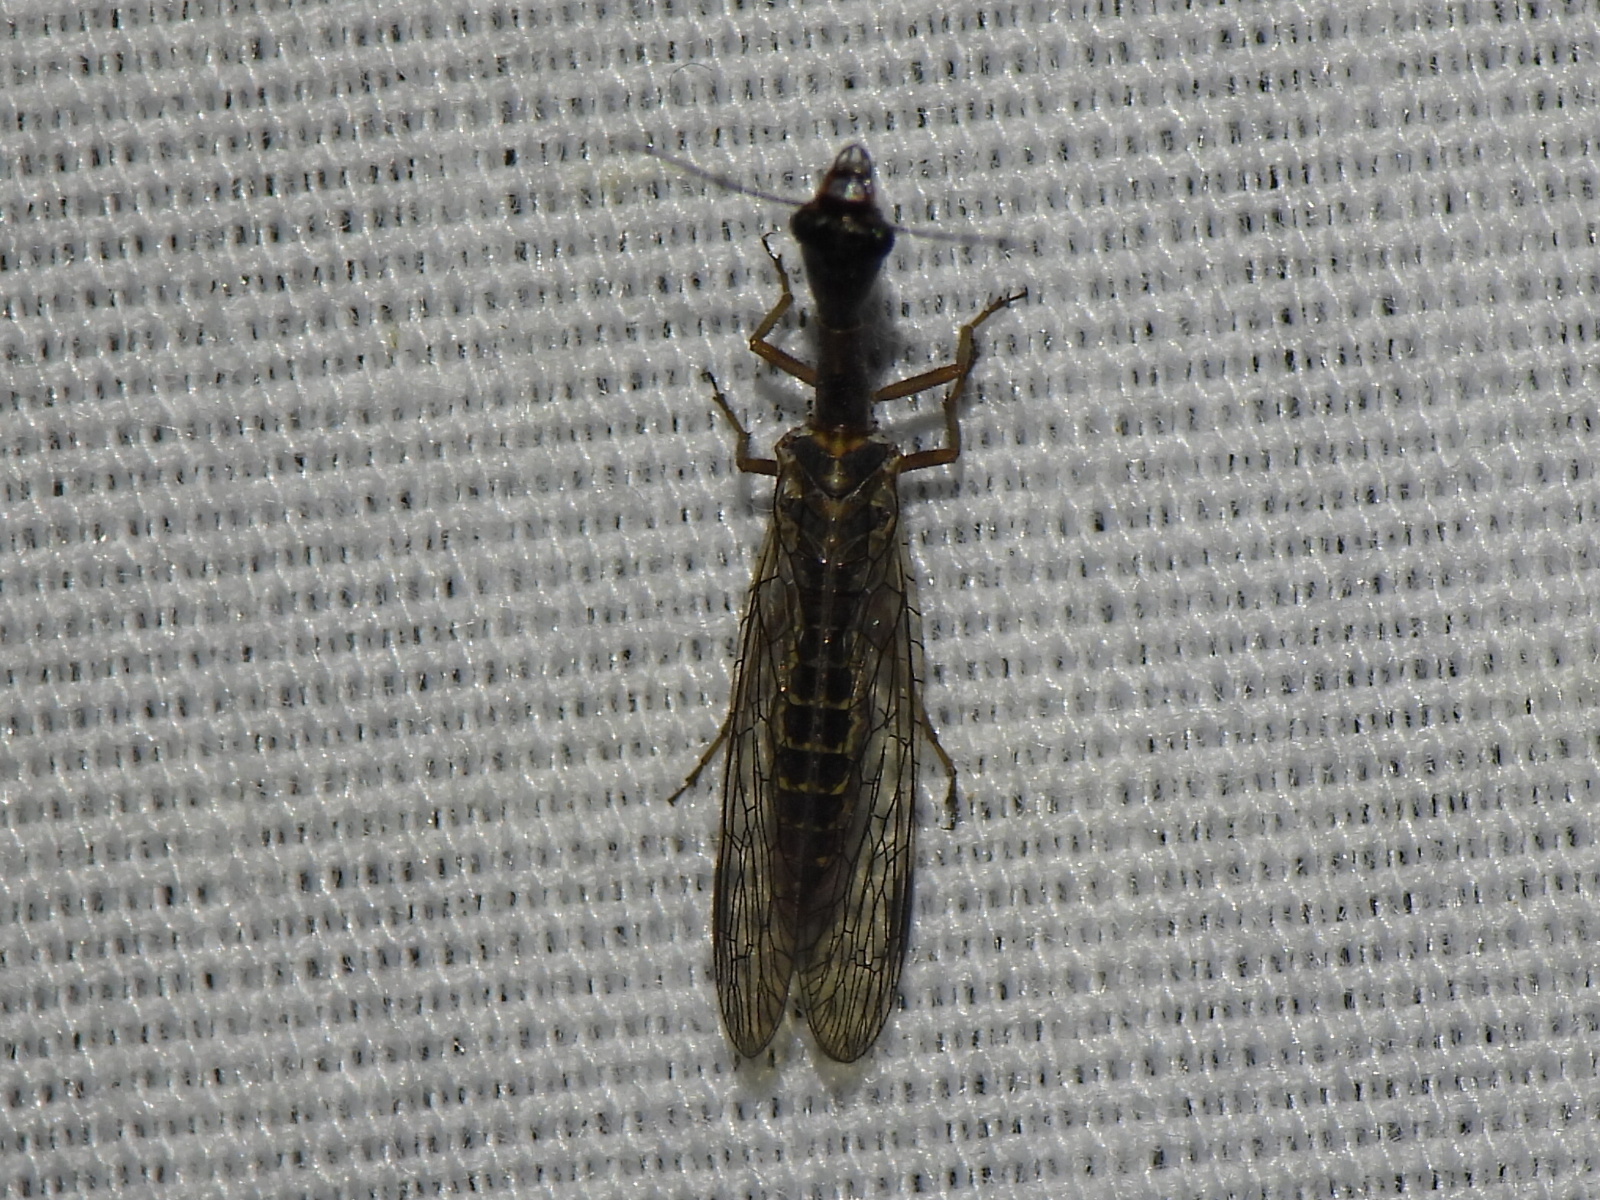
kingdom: Animalia
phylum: Arthropoda
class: Insecta
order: Raphidioptera
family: Raphidiidae
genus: Agulla
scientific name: Agulla bicolor
